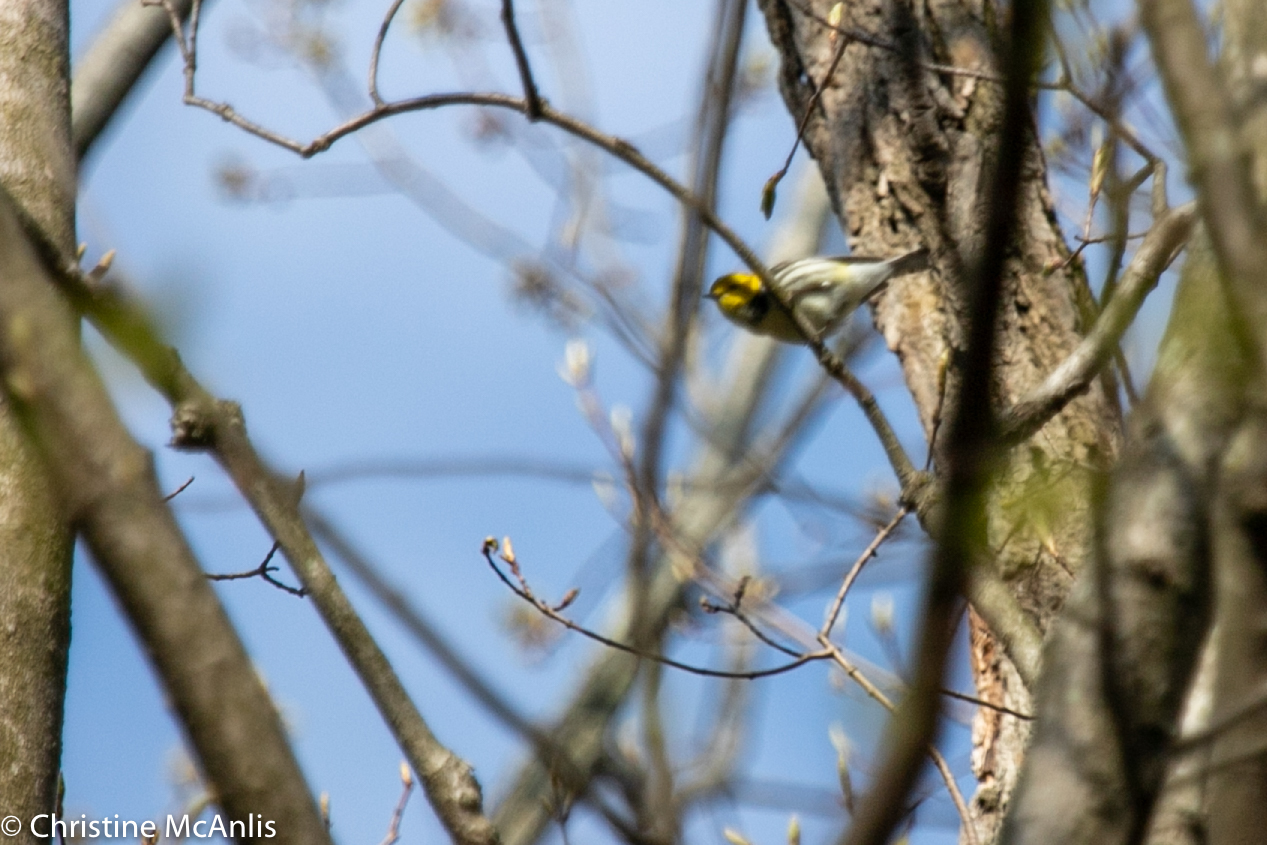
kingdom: Animalia
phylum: Chordata
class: Aves
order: Passeriformes
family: Parulidae
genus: Setophaga
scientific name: Setophaga virens
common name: Black-throated green warbler
